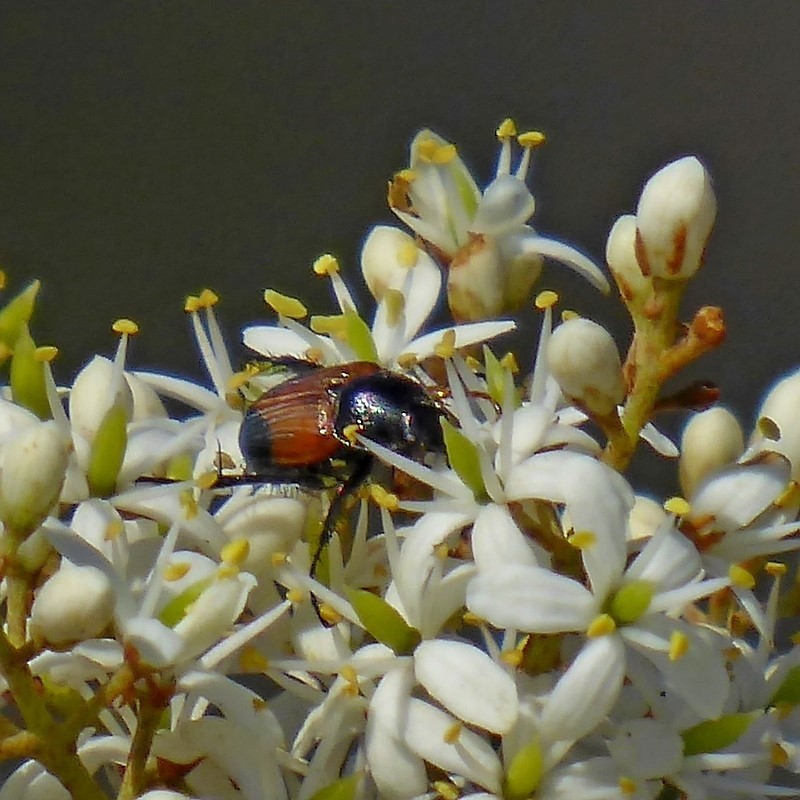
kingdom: Animalia
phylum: Arthropoda
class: Insecta
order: Coleoptera
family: Scarabaeidae
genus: Phyllotocus
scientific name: Phyllotocus navicularis
